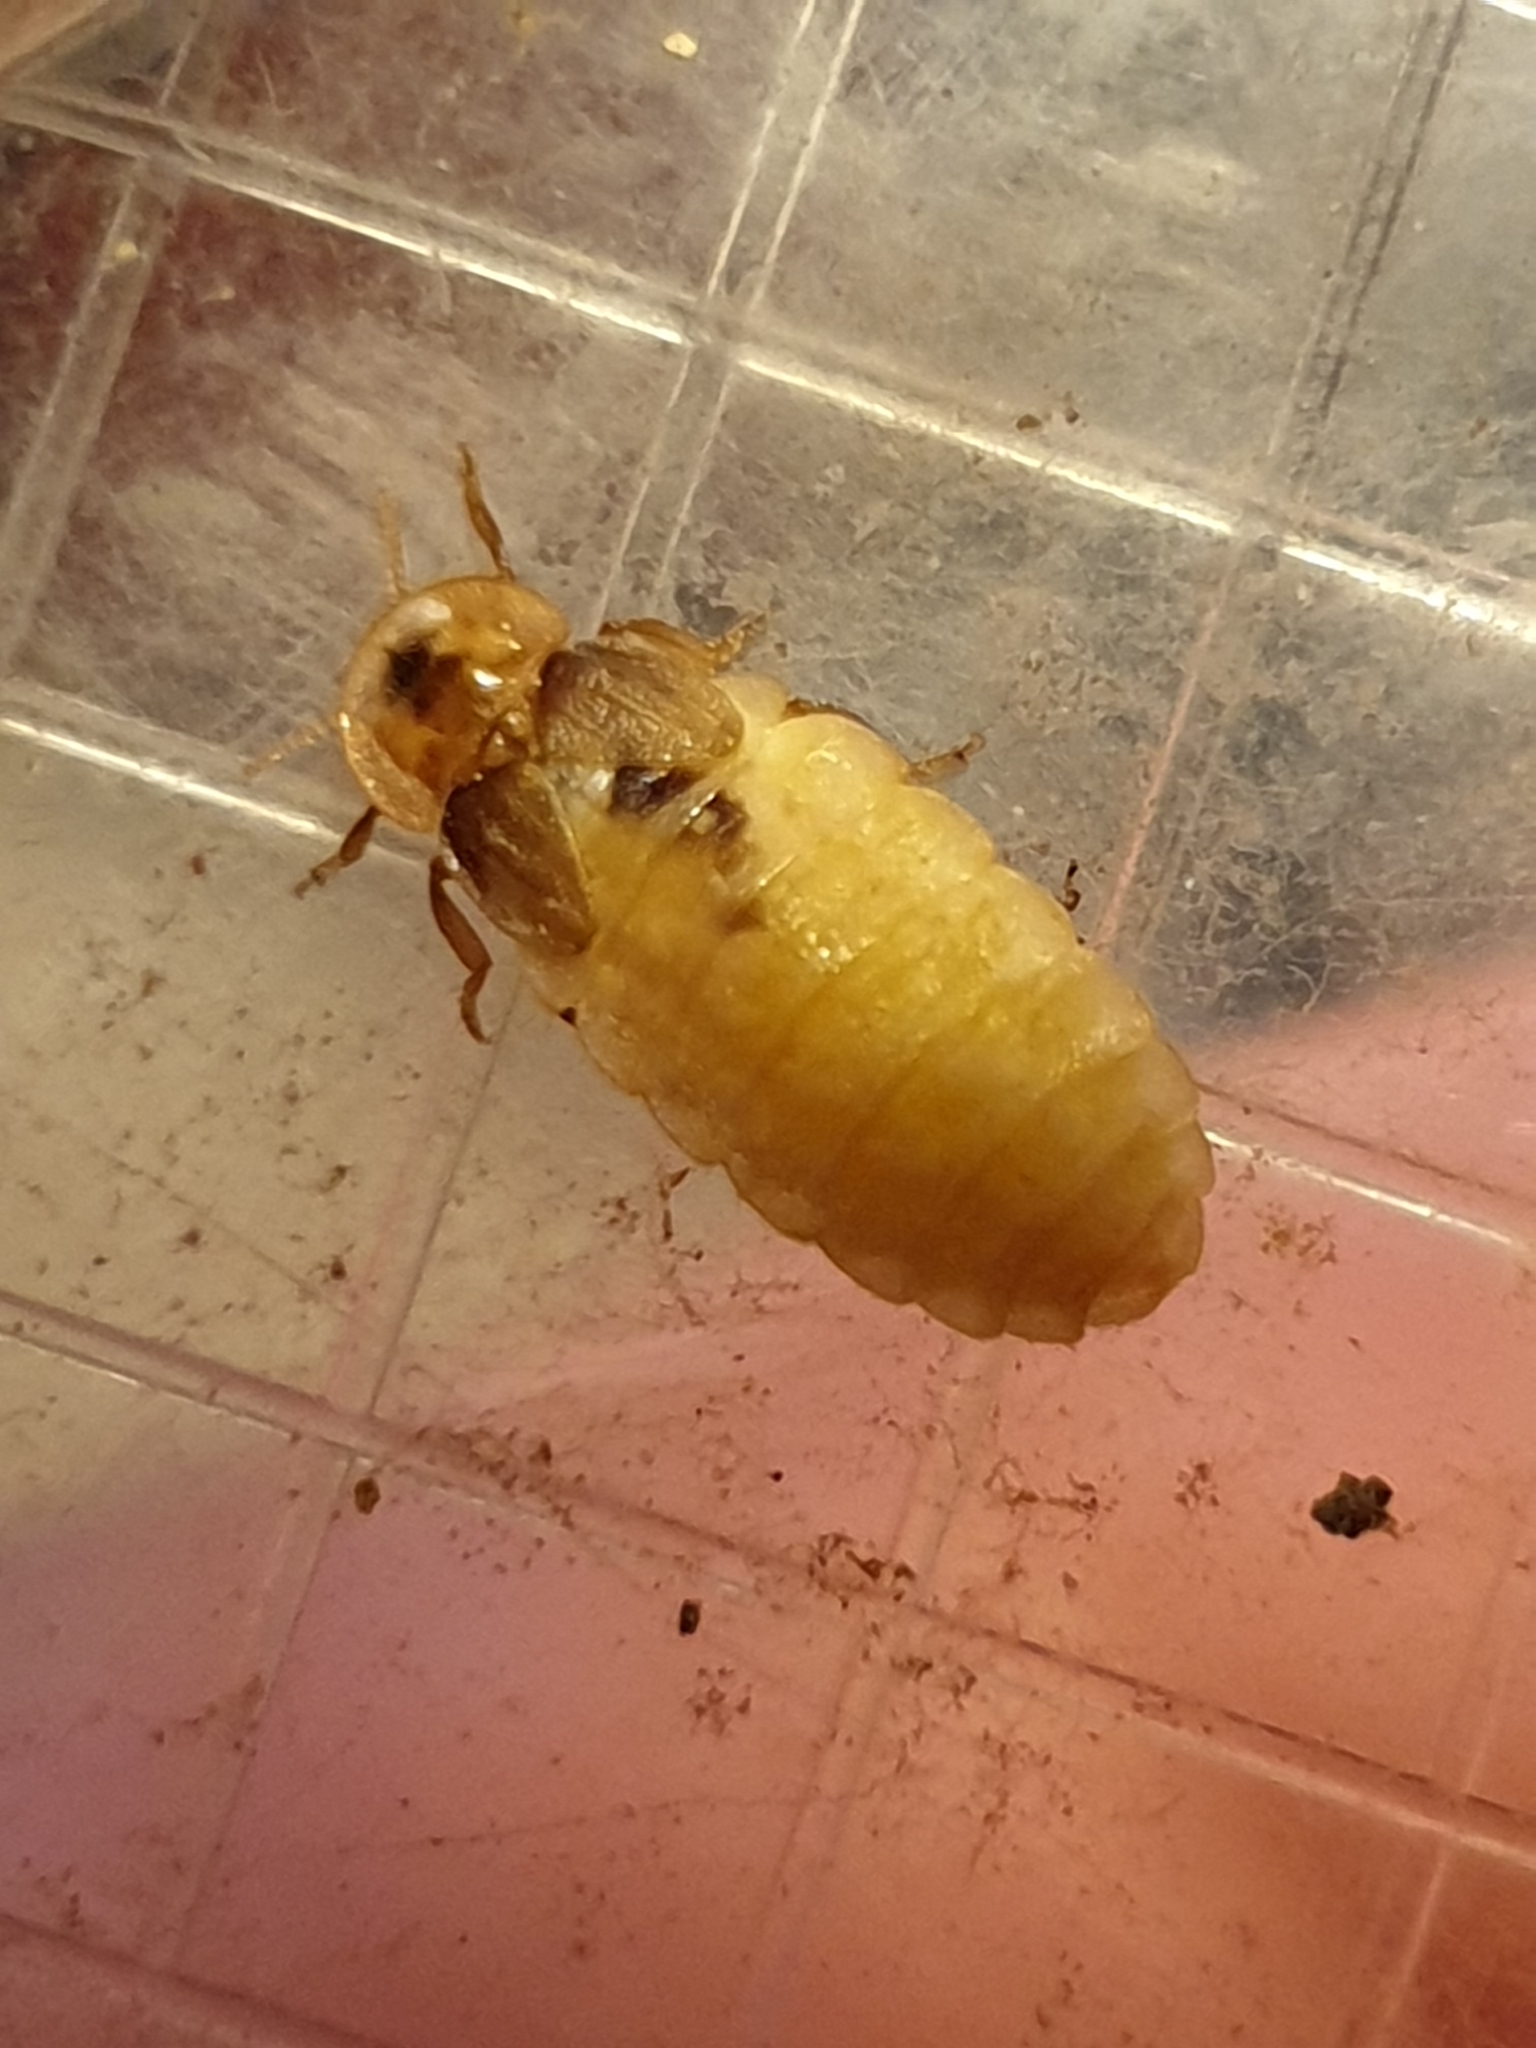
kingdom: Animalia
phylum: Arthropoda
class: Insecta
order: Coleoptera
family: Lampyridae
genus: Lamprohiza
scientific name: Lamprohiza mulsantii
